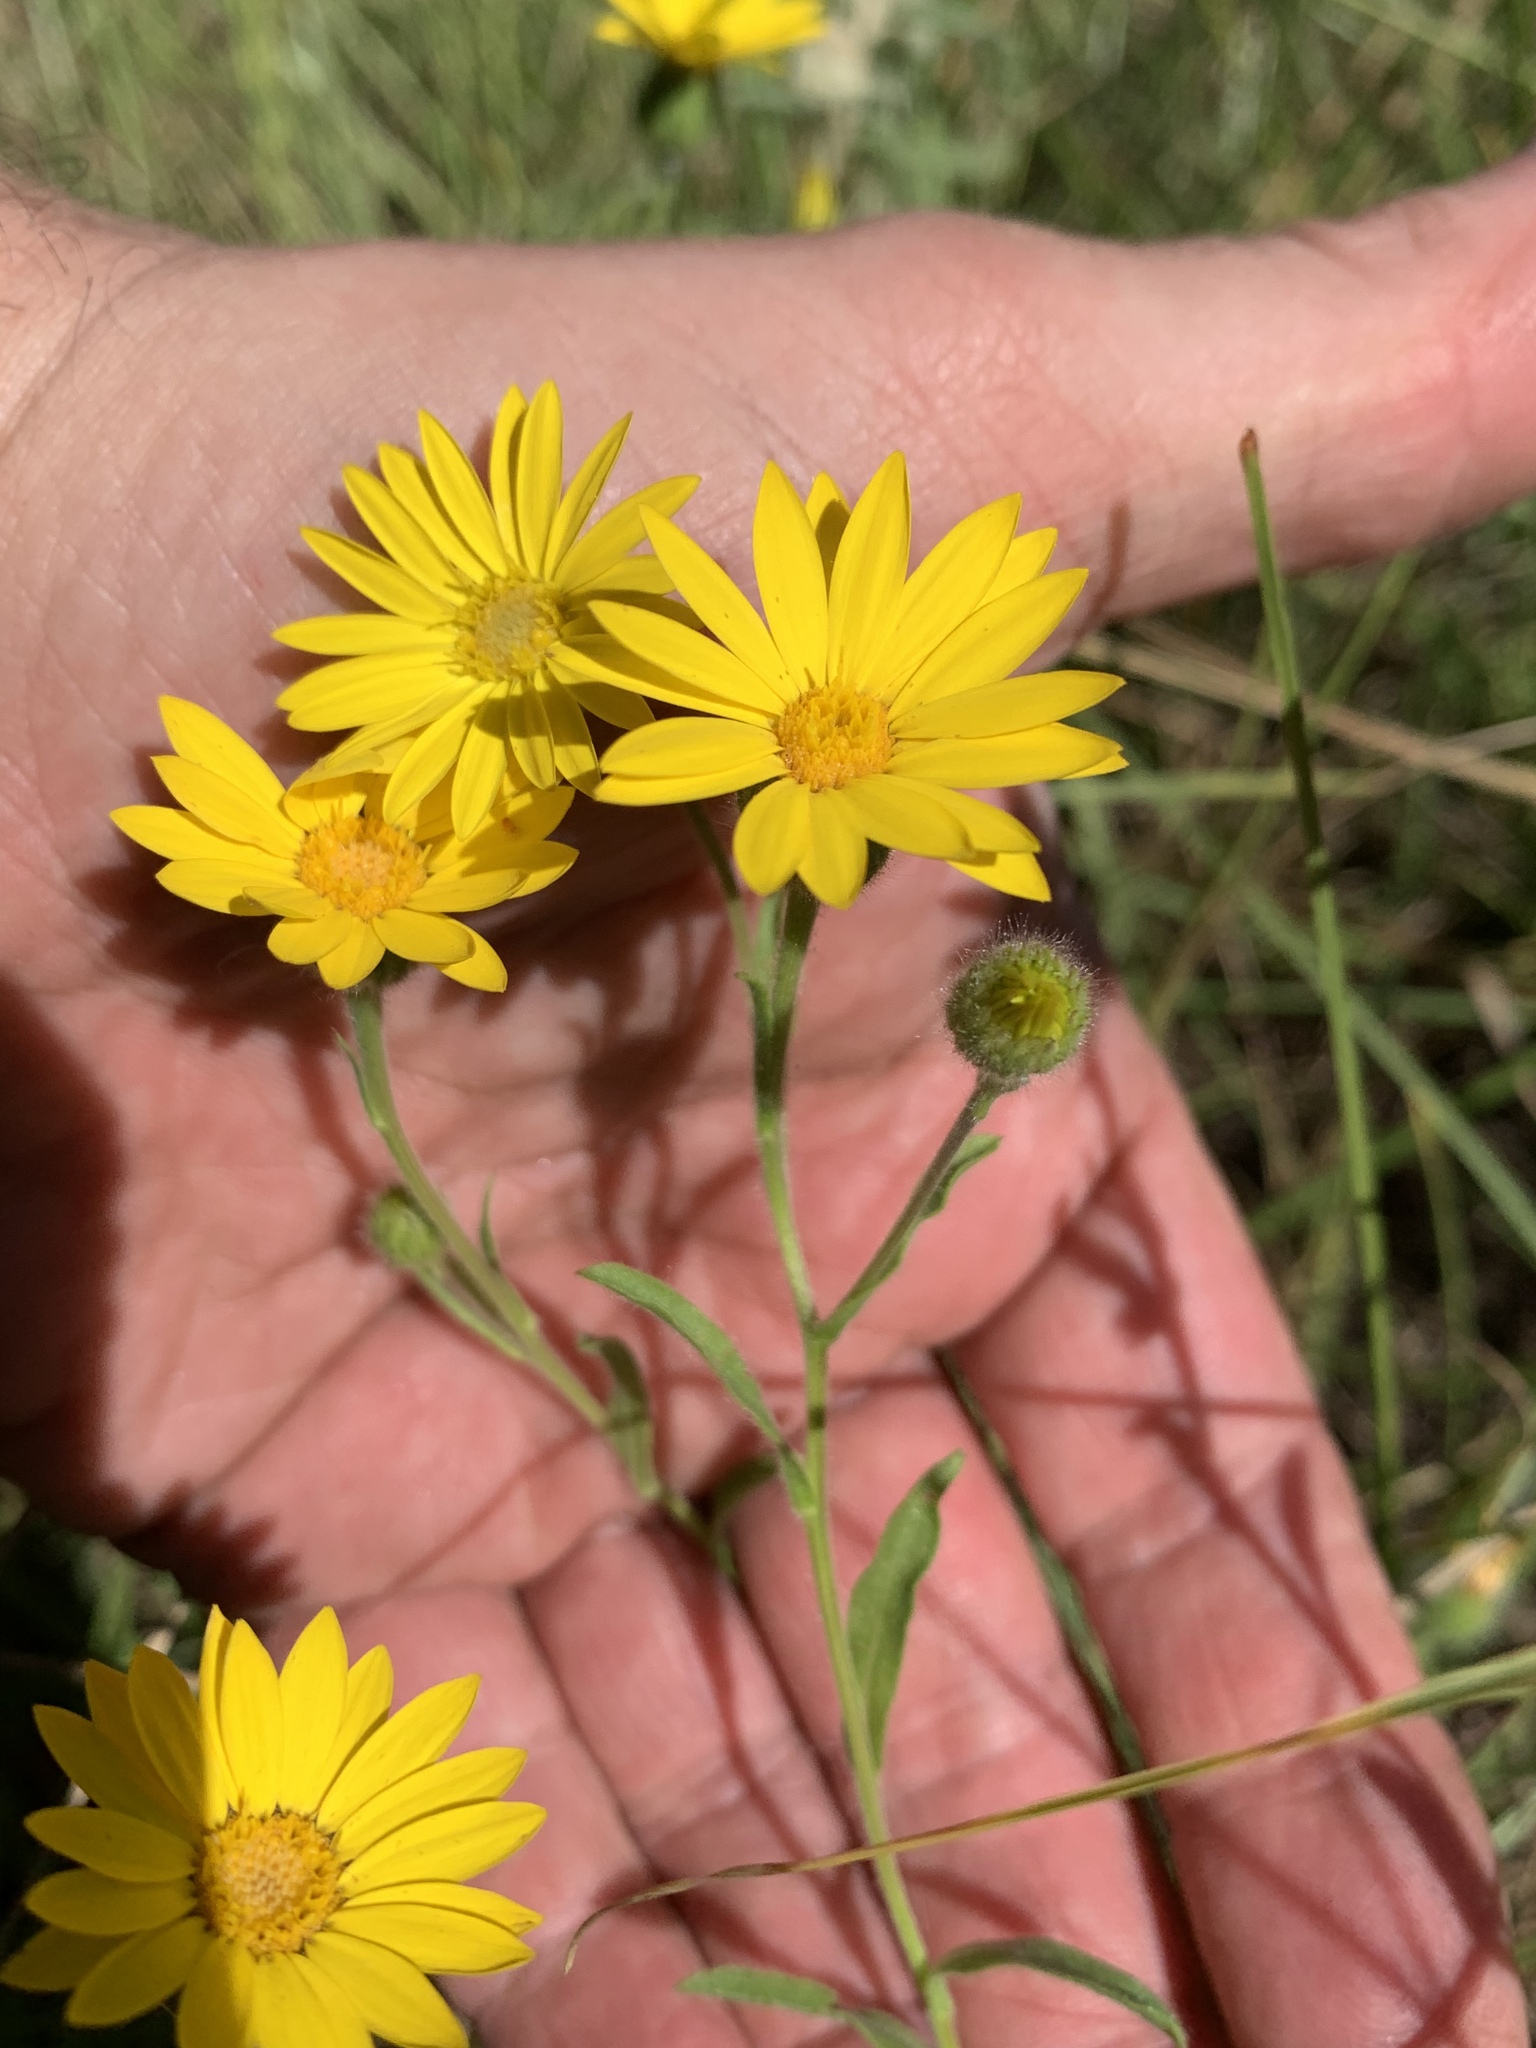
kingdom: Plantae
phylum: Tracheophyta
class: Magnoliopsida
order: Asterales
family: Asteraceae
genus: Bradburia
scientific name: Bradburia pilosa
